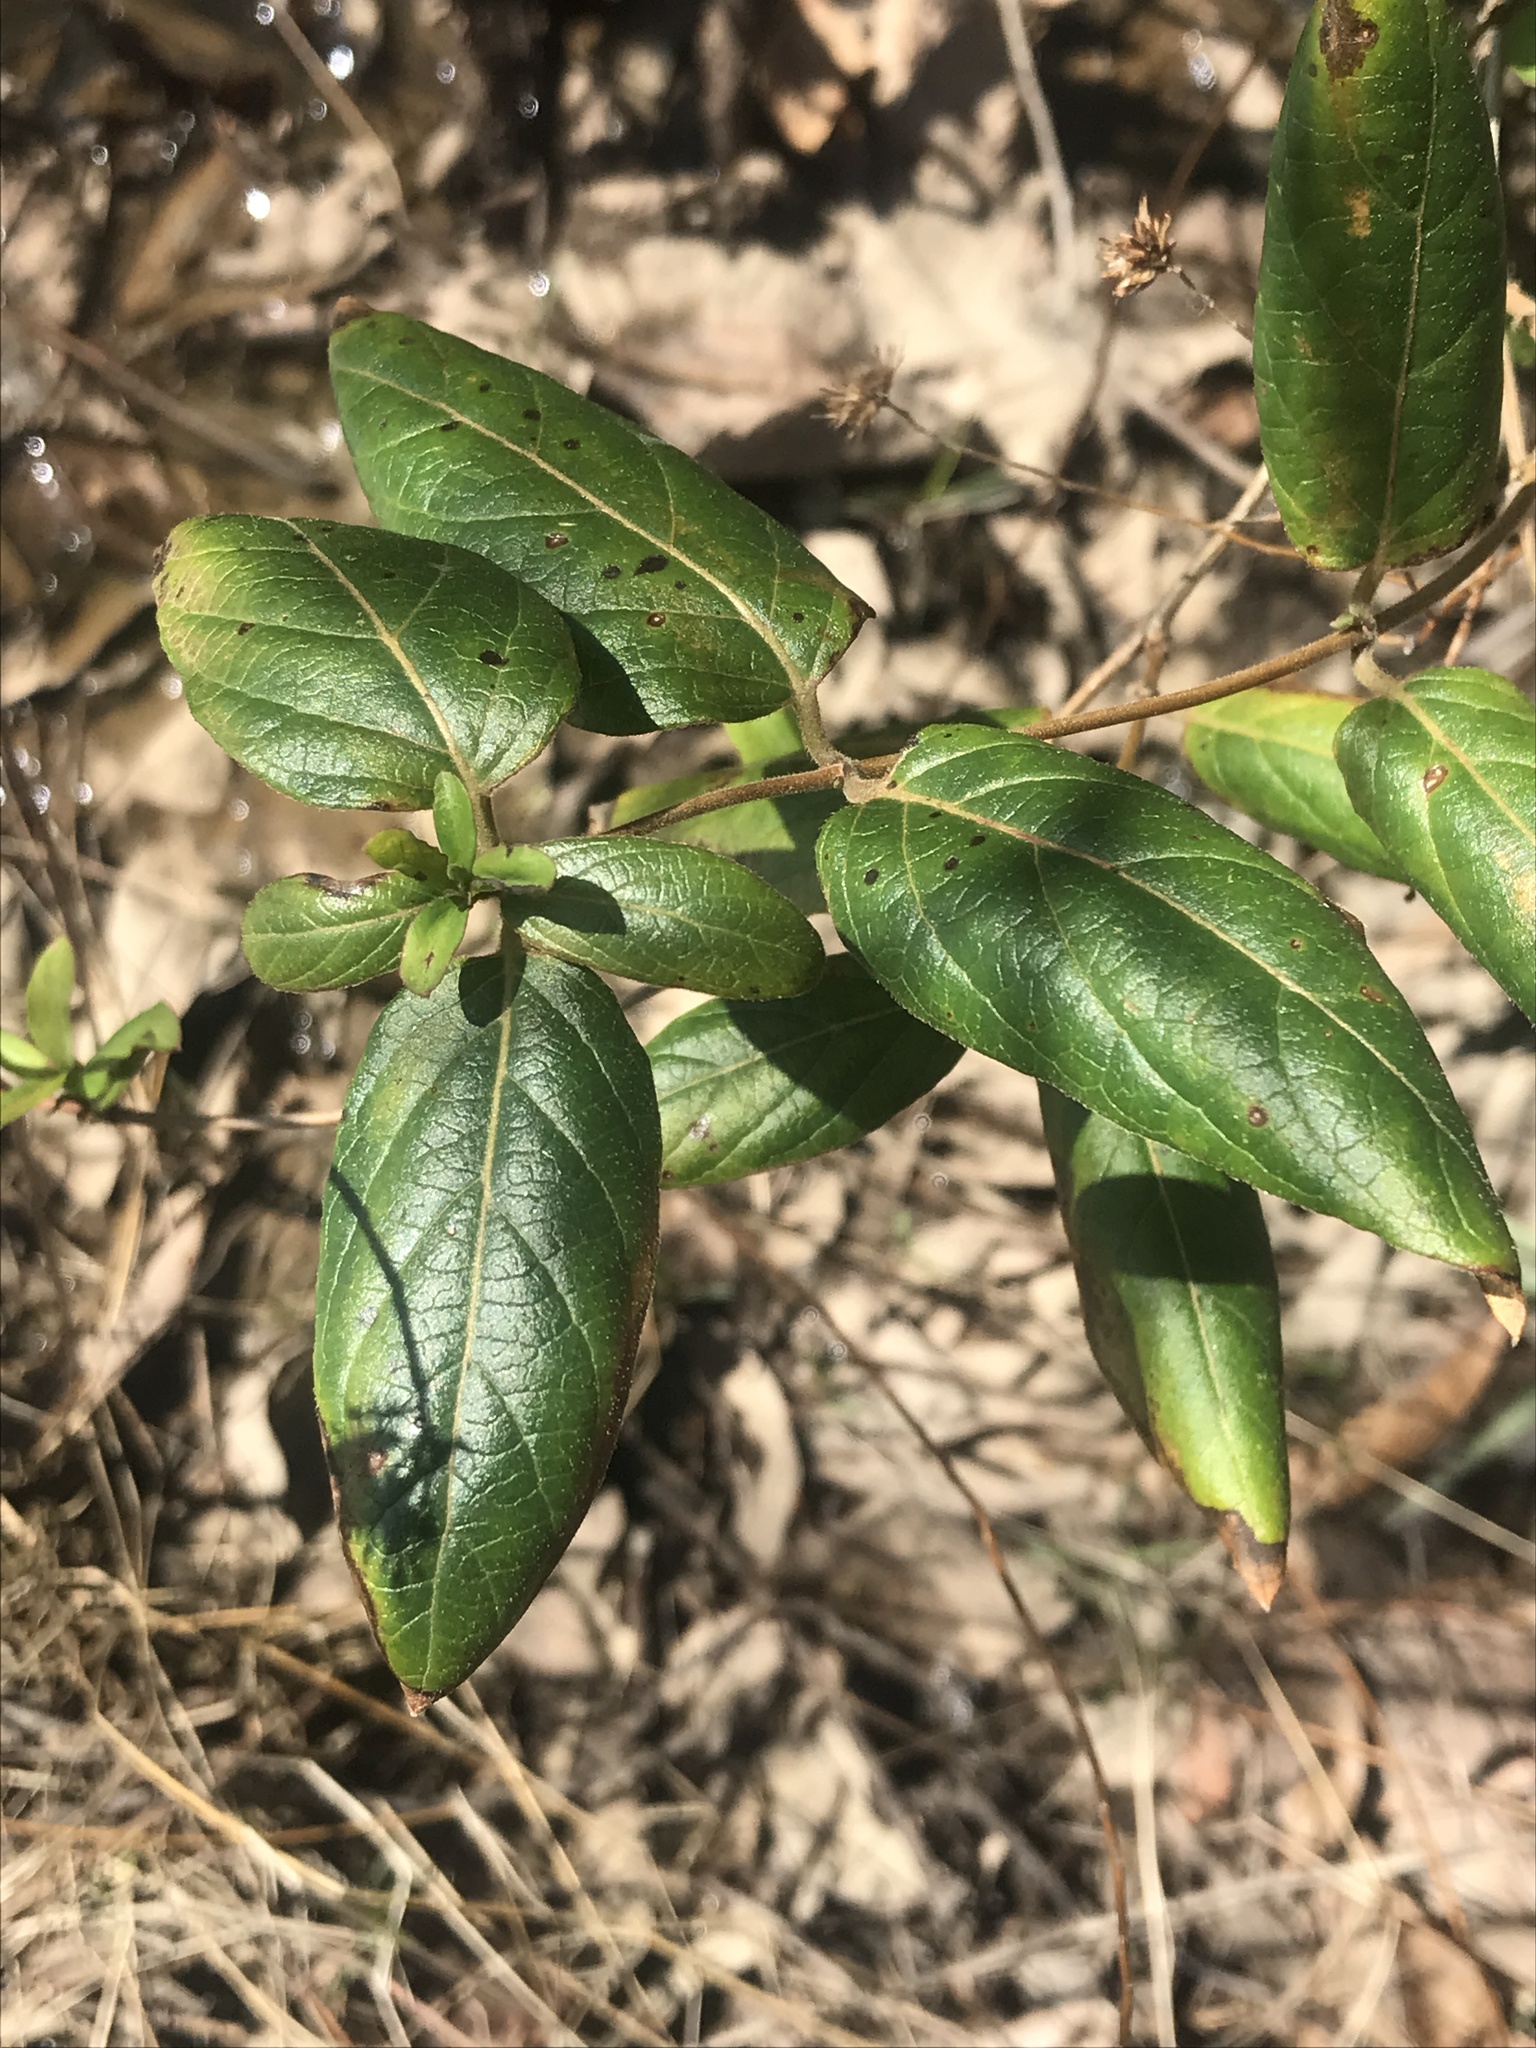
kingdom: Plantae
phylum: Tracheophyta
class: Magnoliopsida
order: Dipsacales
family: Caprifoliaceae
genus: Lonicera
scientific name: Lonicera japonica
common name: Japanese honeysuckle
